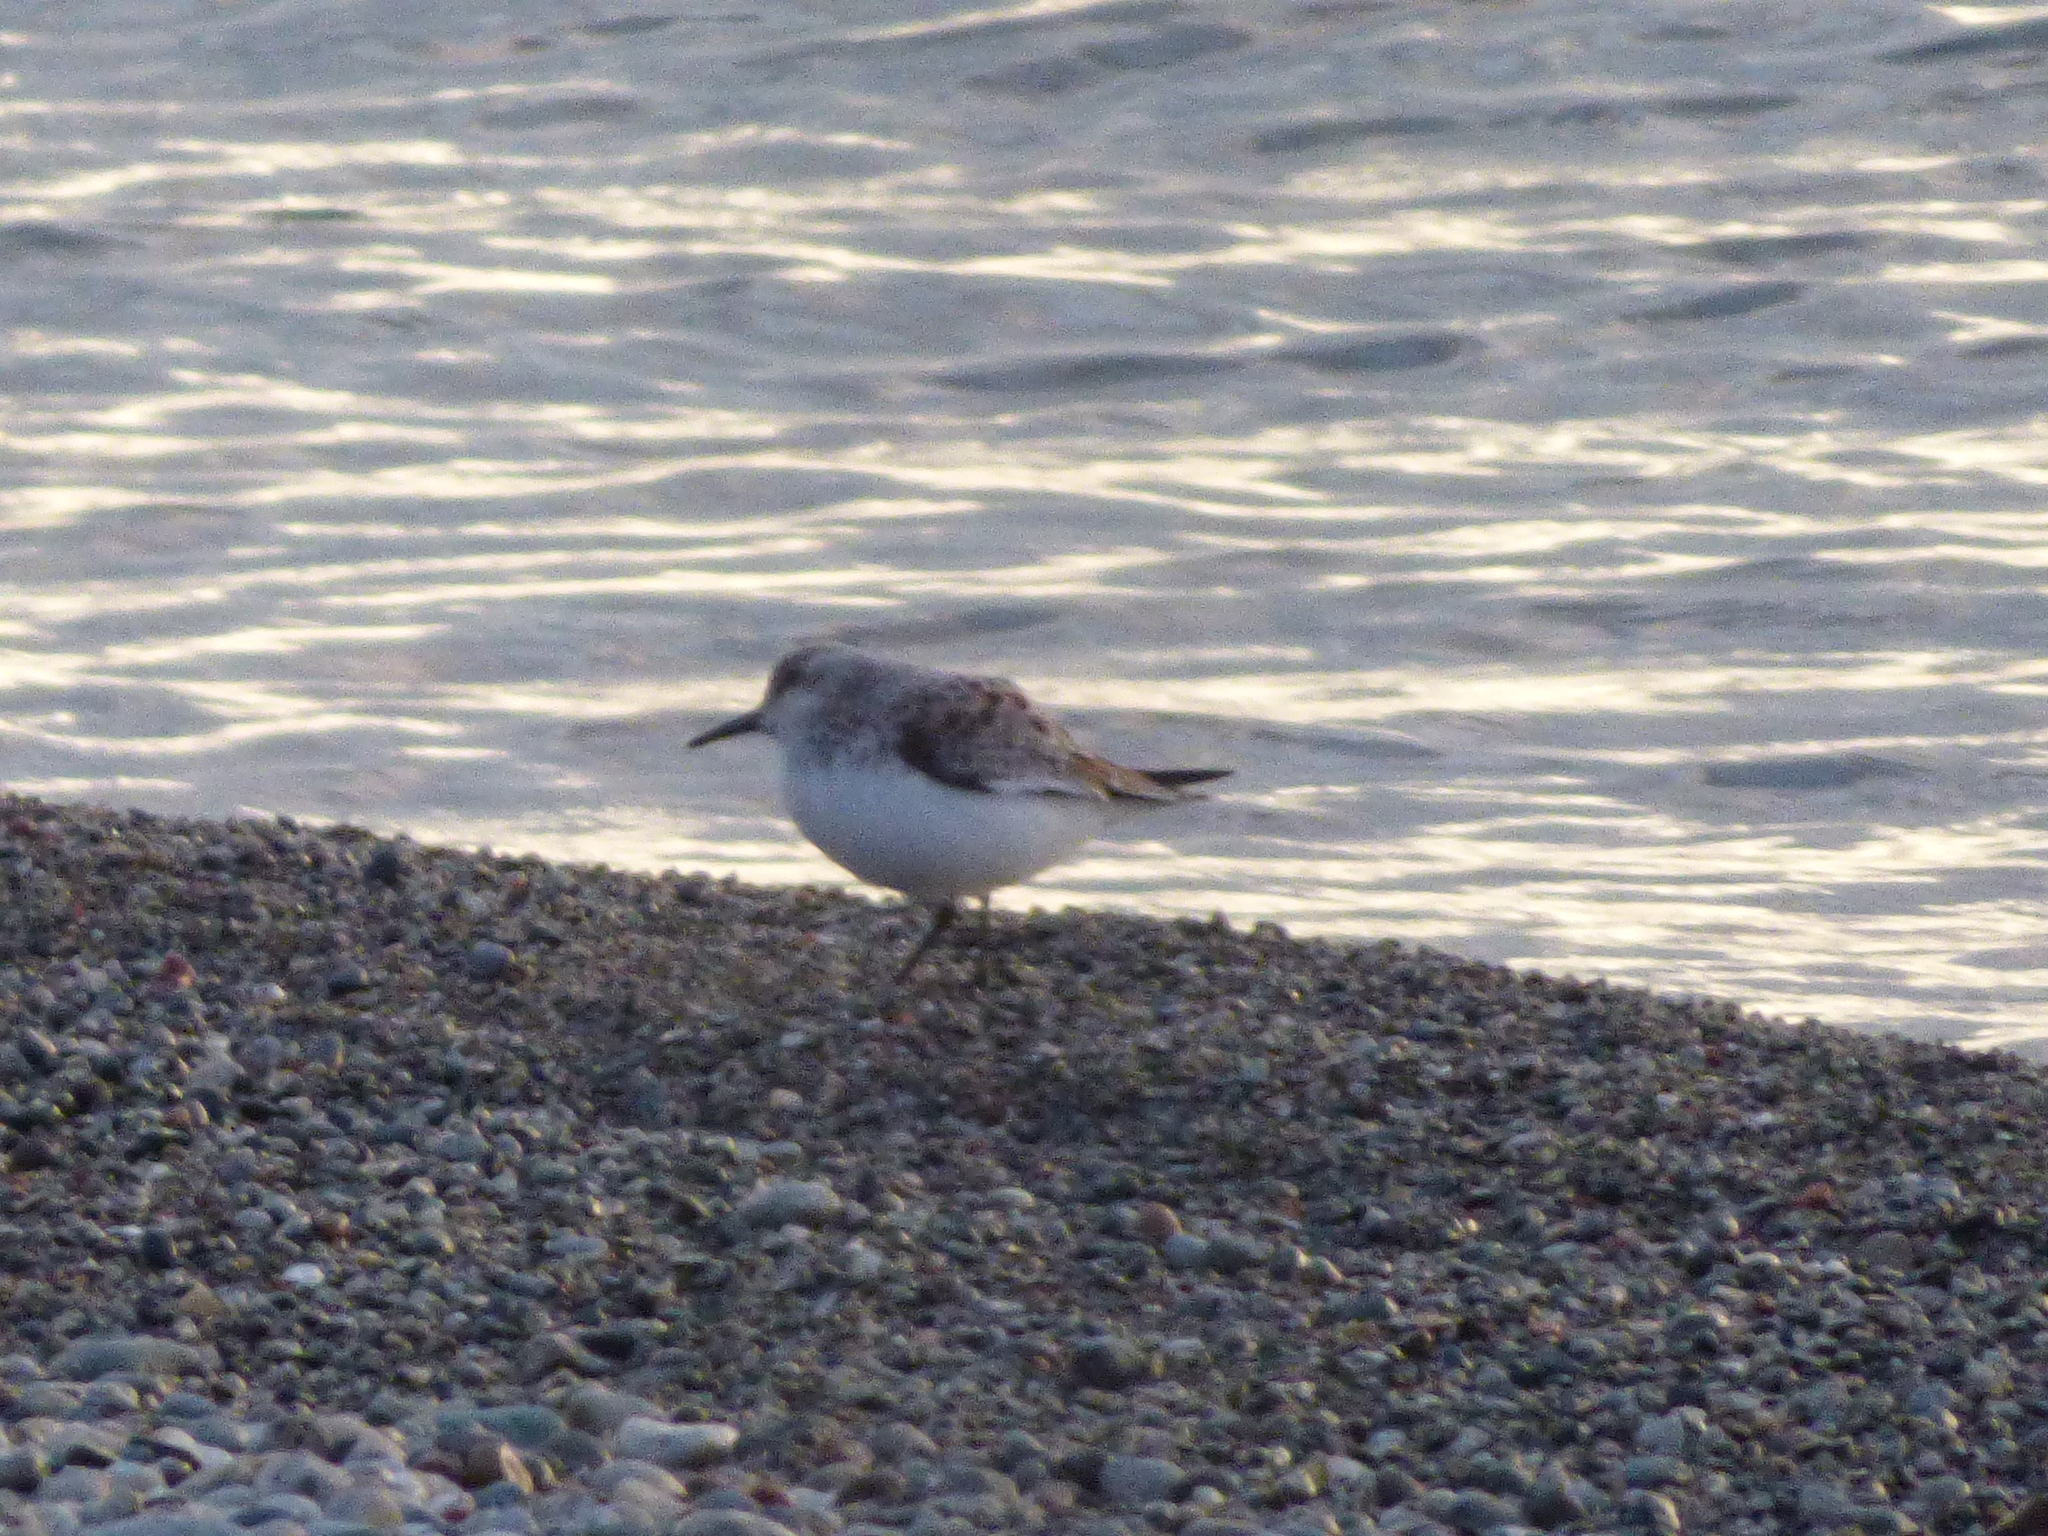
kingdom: Animalia
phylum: Chordata
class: Aves
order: Charadriiformes
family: Scolopacidae
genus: Calidris
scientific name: Calidris alba
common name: Sanderling
